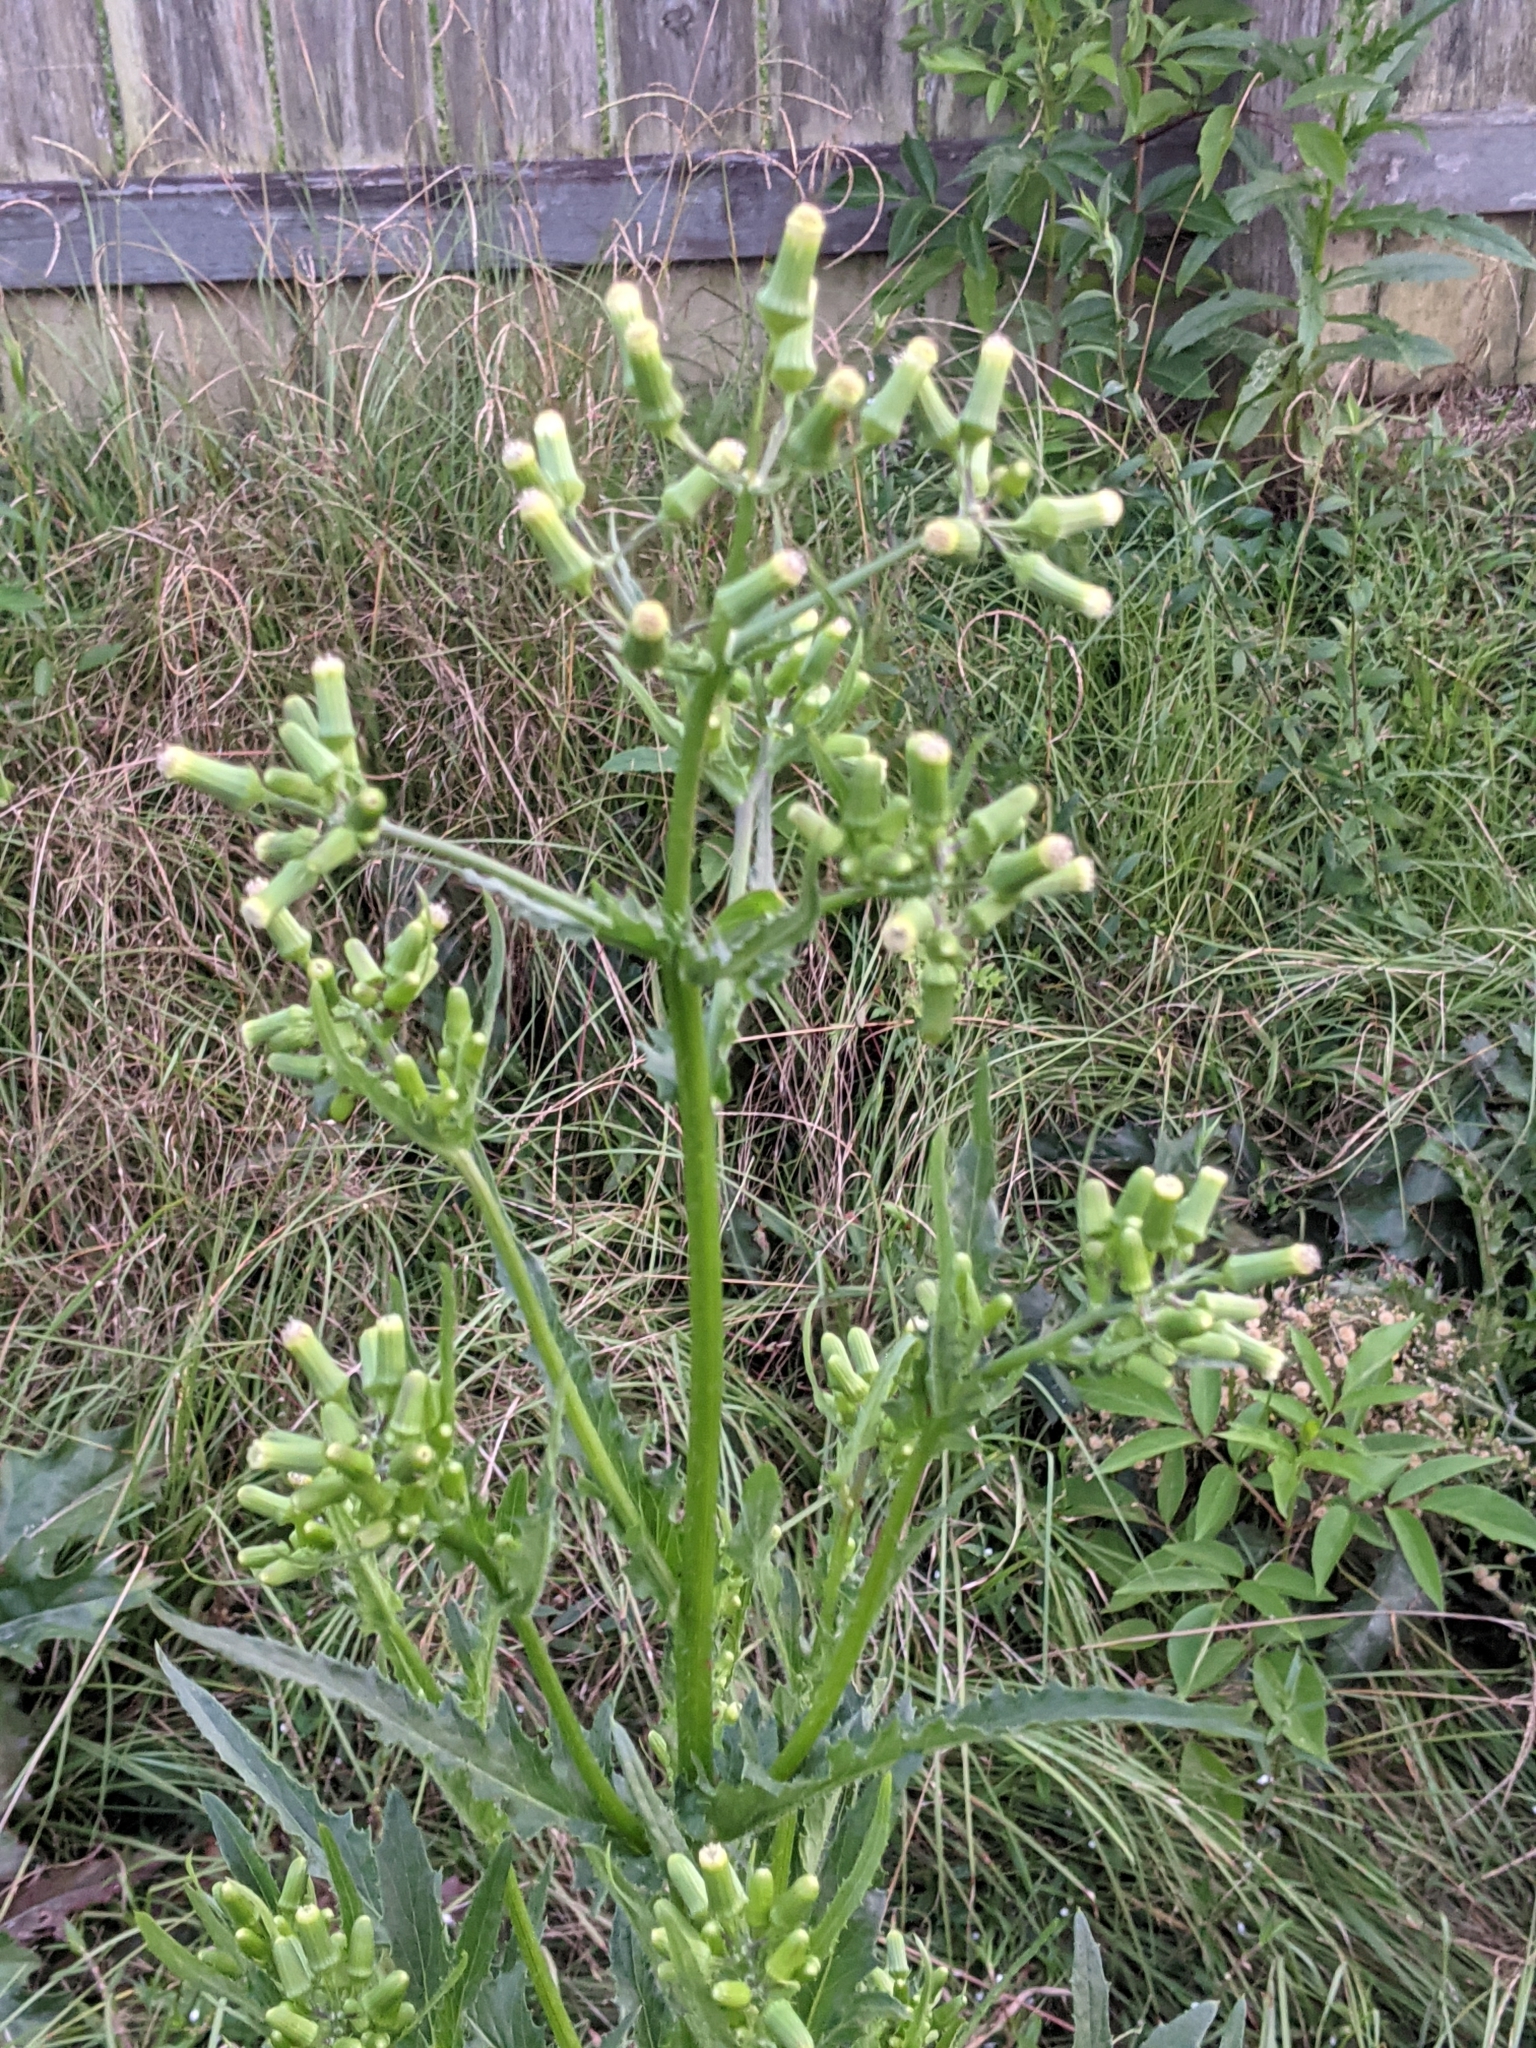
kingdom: Plantae
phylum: Tracheophyta
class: Magnoliopsida
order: Asterales
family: Asteraceae
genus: Erechtites
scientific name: Erechtites hieraciifolius
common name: American burnweed
